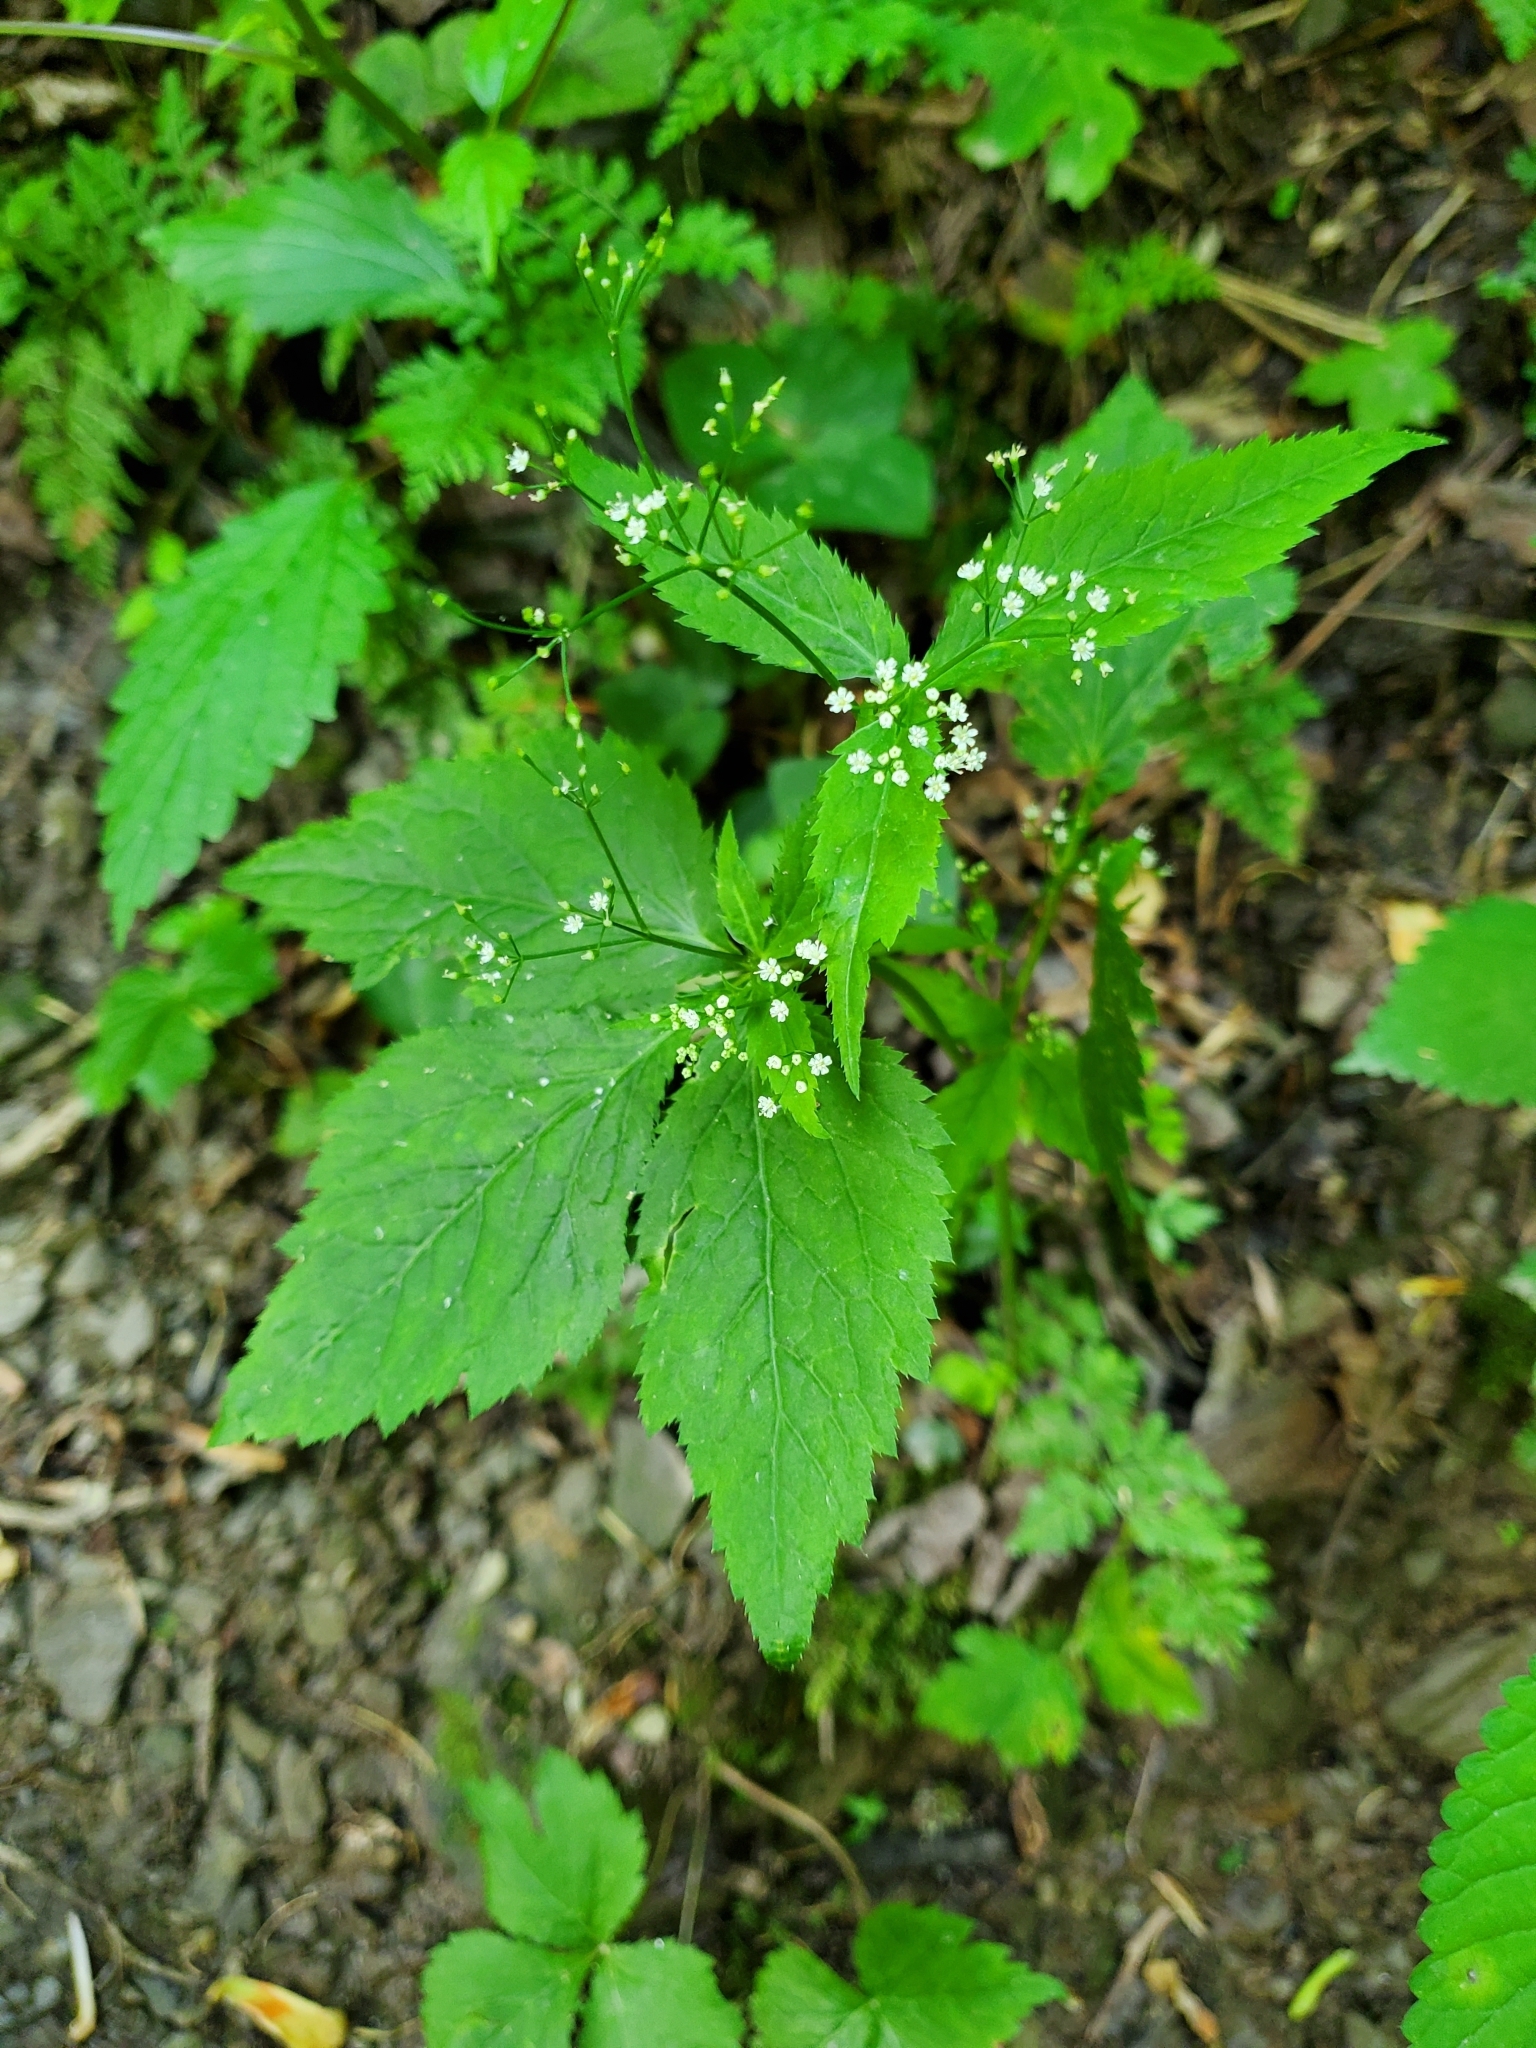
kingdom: Plantae
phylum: Tracheophyta
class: Magnoliopsida
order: Apiales
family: Apiaceae
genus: Cryptotaenia
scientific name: Cryptotaenia canadensis
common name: Honewort
